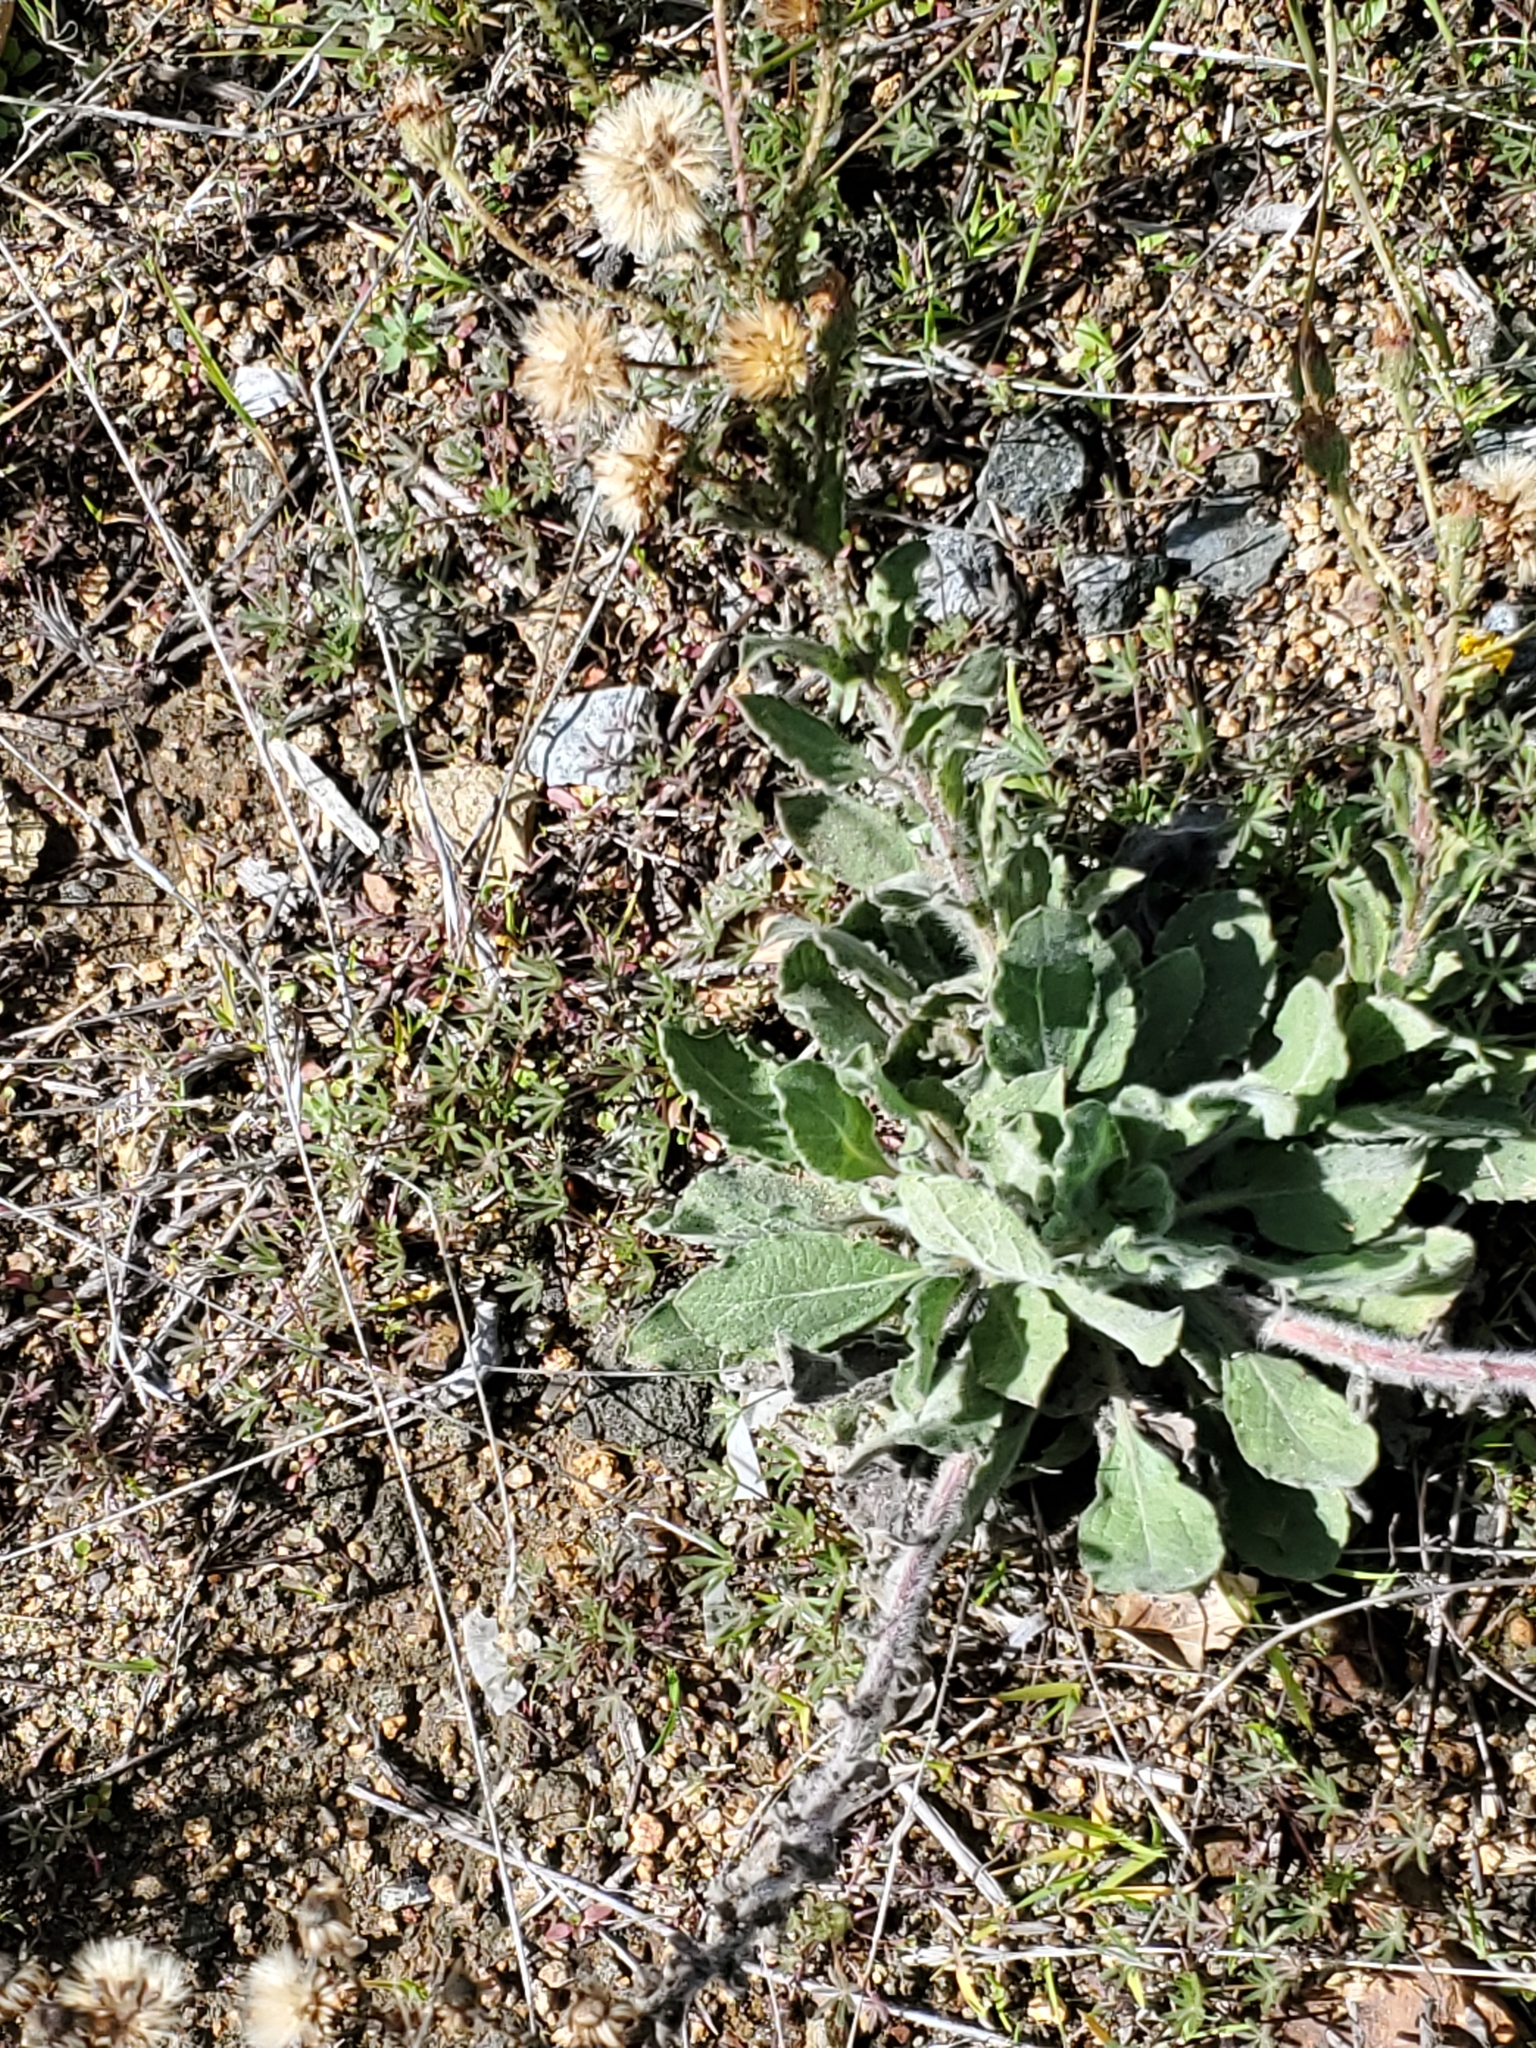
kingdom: Plantae
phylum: Tracheophyta
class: Magnoliopsida
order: Asterales
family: Asteraceae
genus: Heterotheca
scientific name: Heterotheca grandiflora
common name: Telegraphweed
